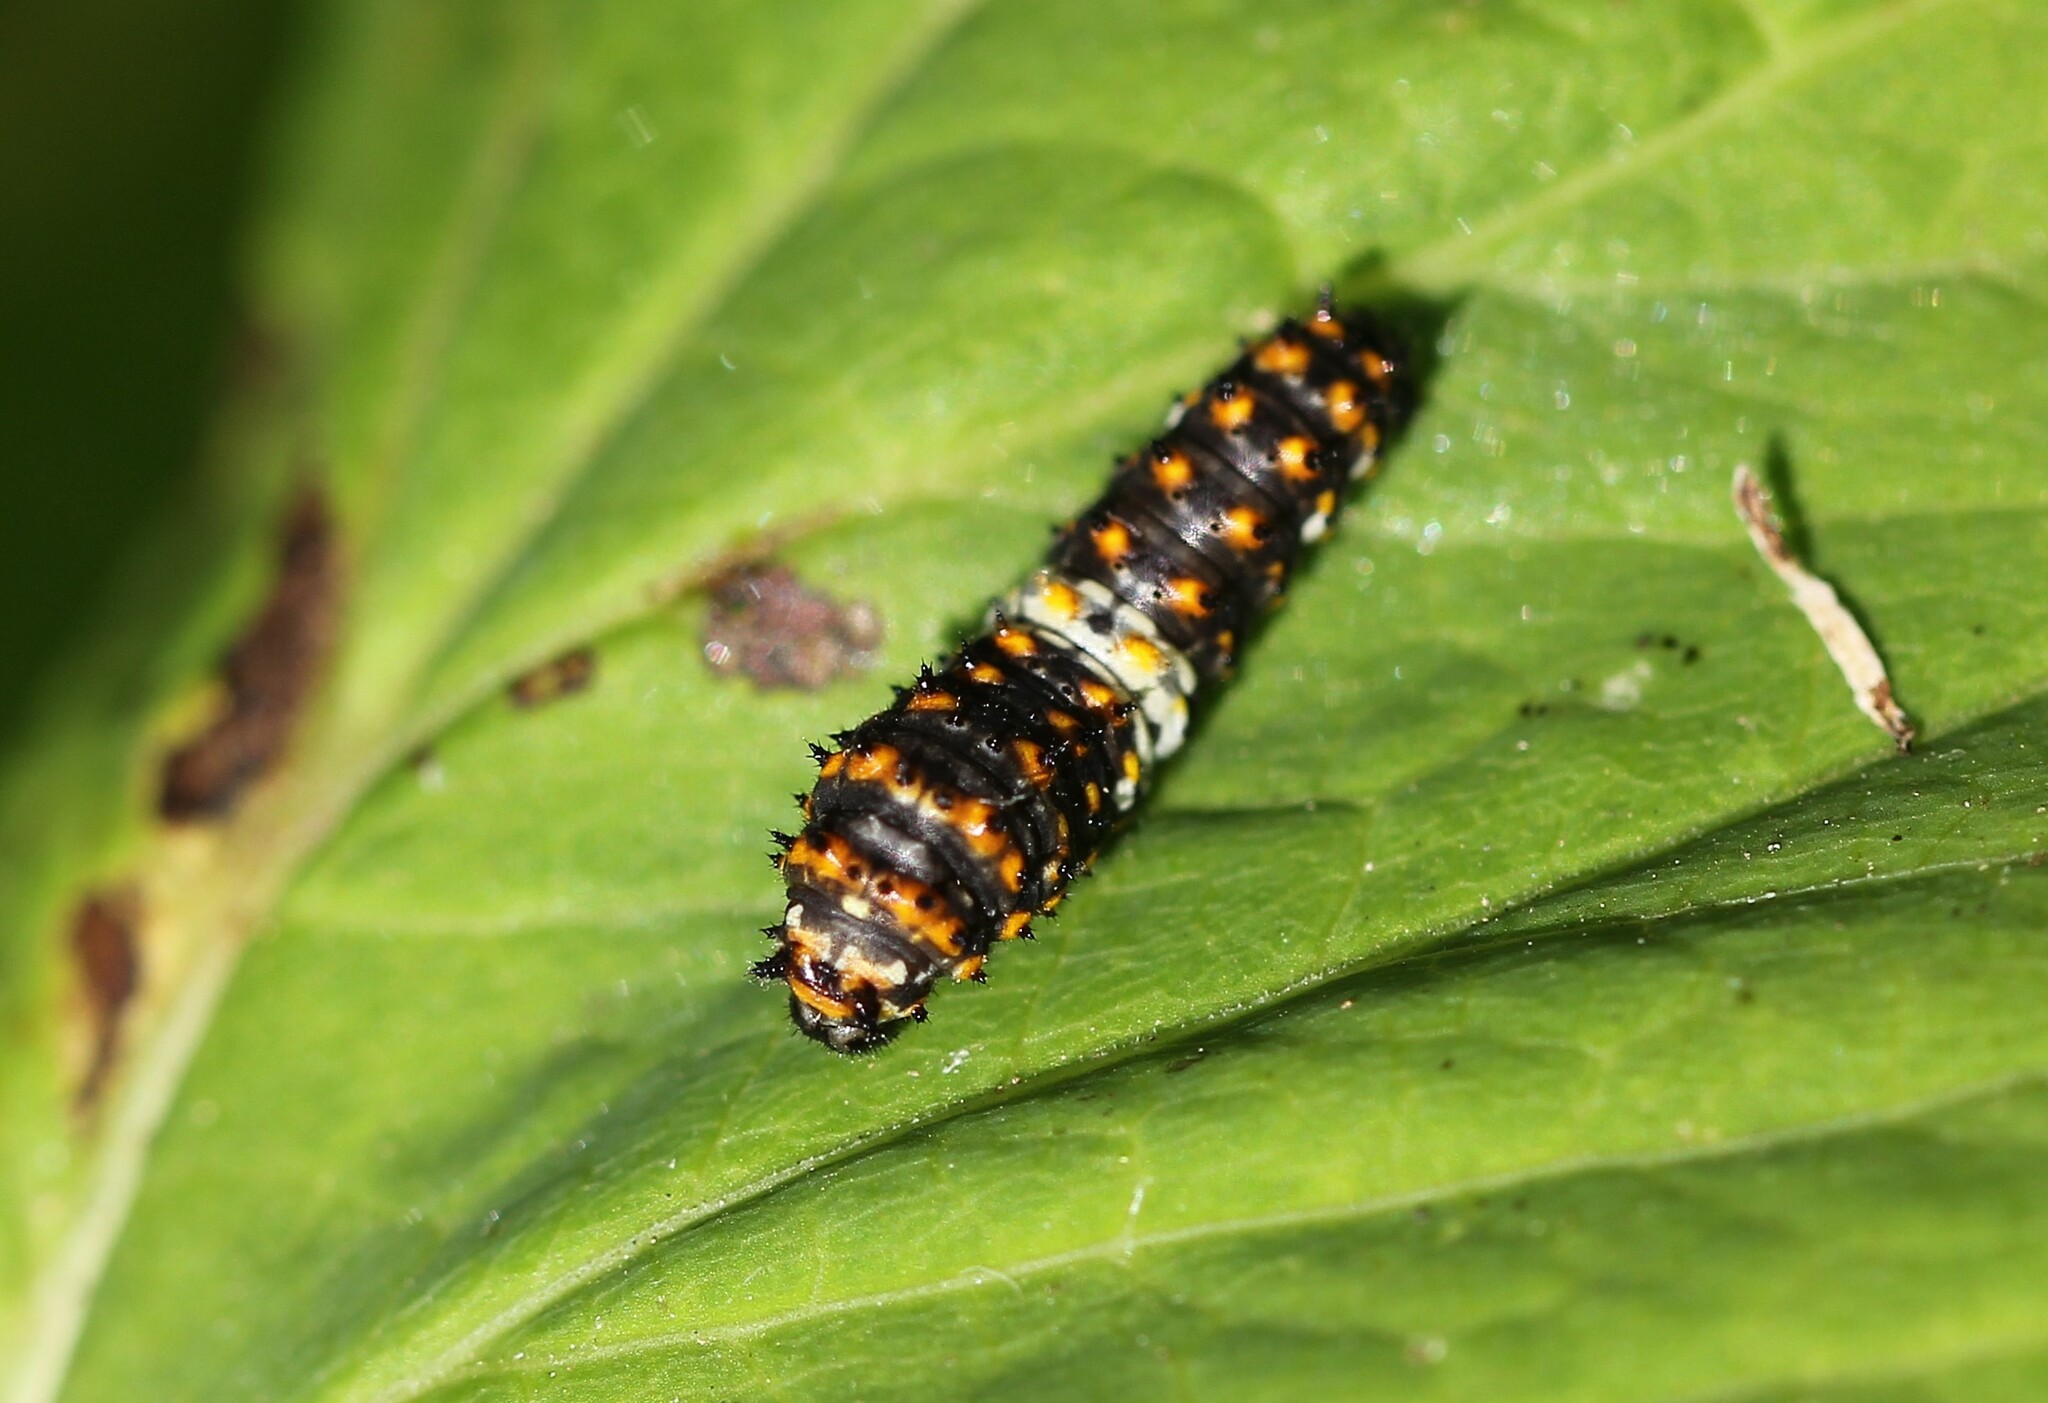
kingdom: Animalia
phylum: Arthropoda
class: Insecta
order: Lepidoptera
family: Papilionidae
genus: Papilio
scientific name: Papilio polyxenes
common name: Black swallowtail
